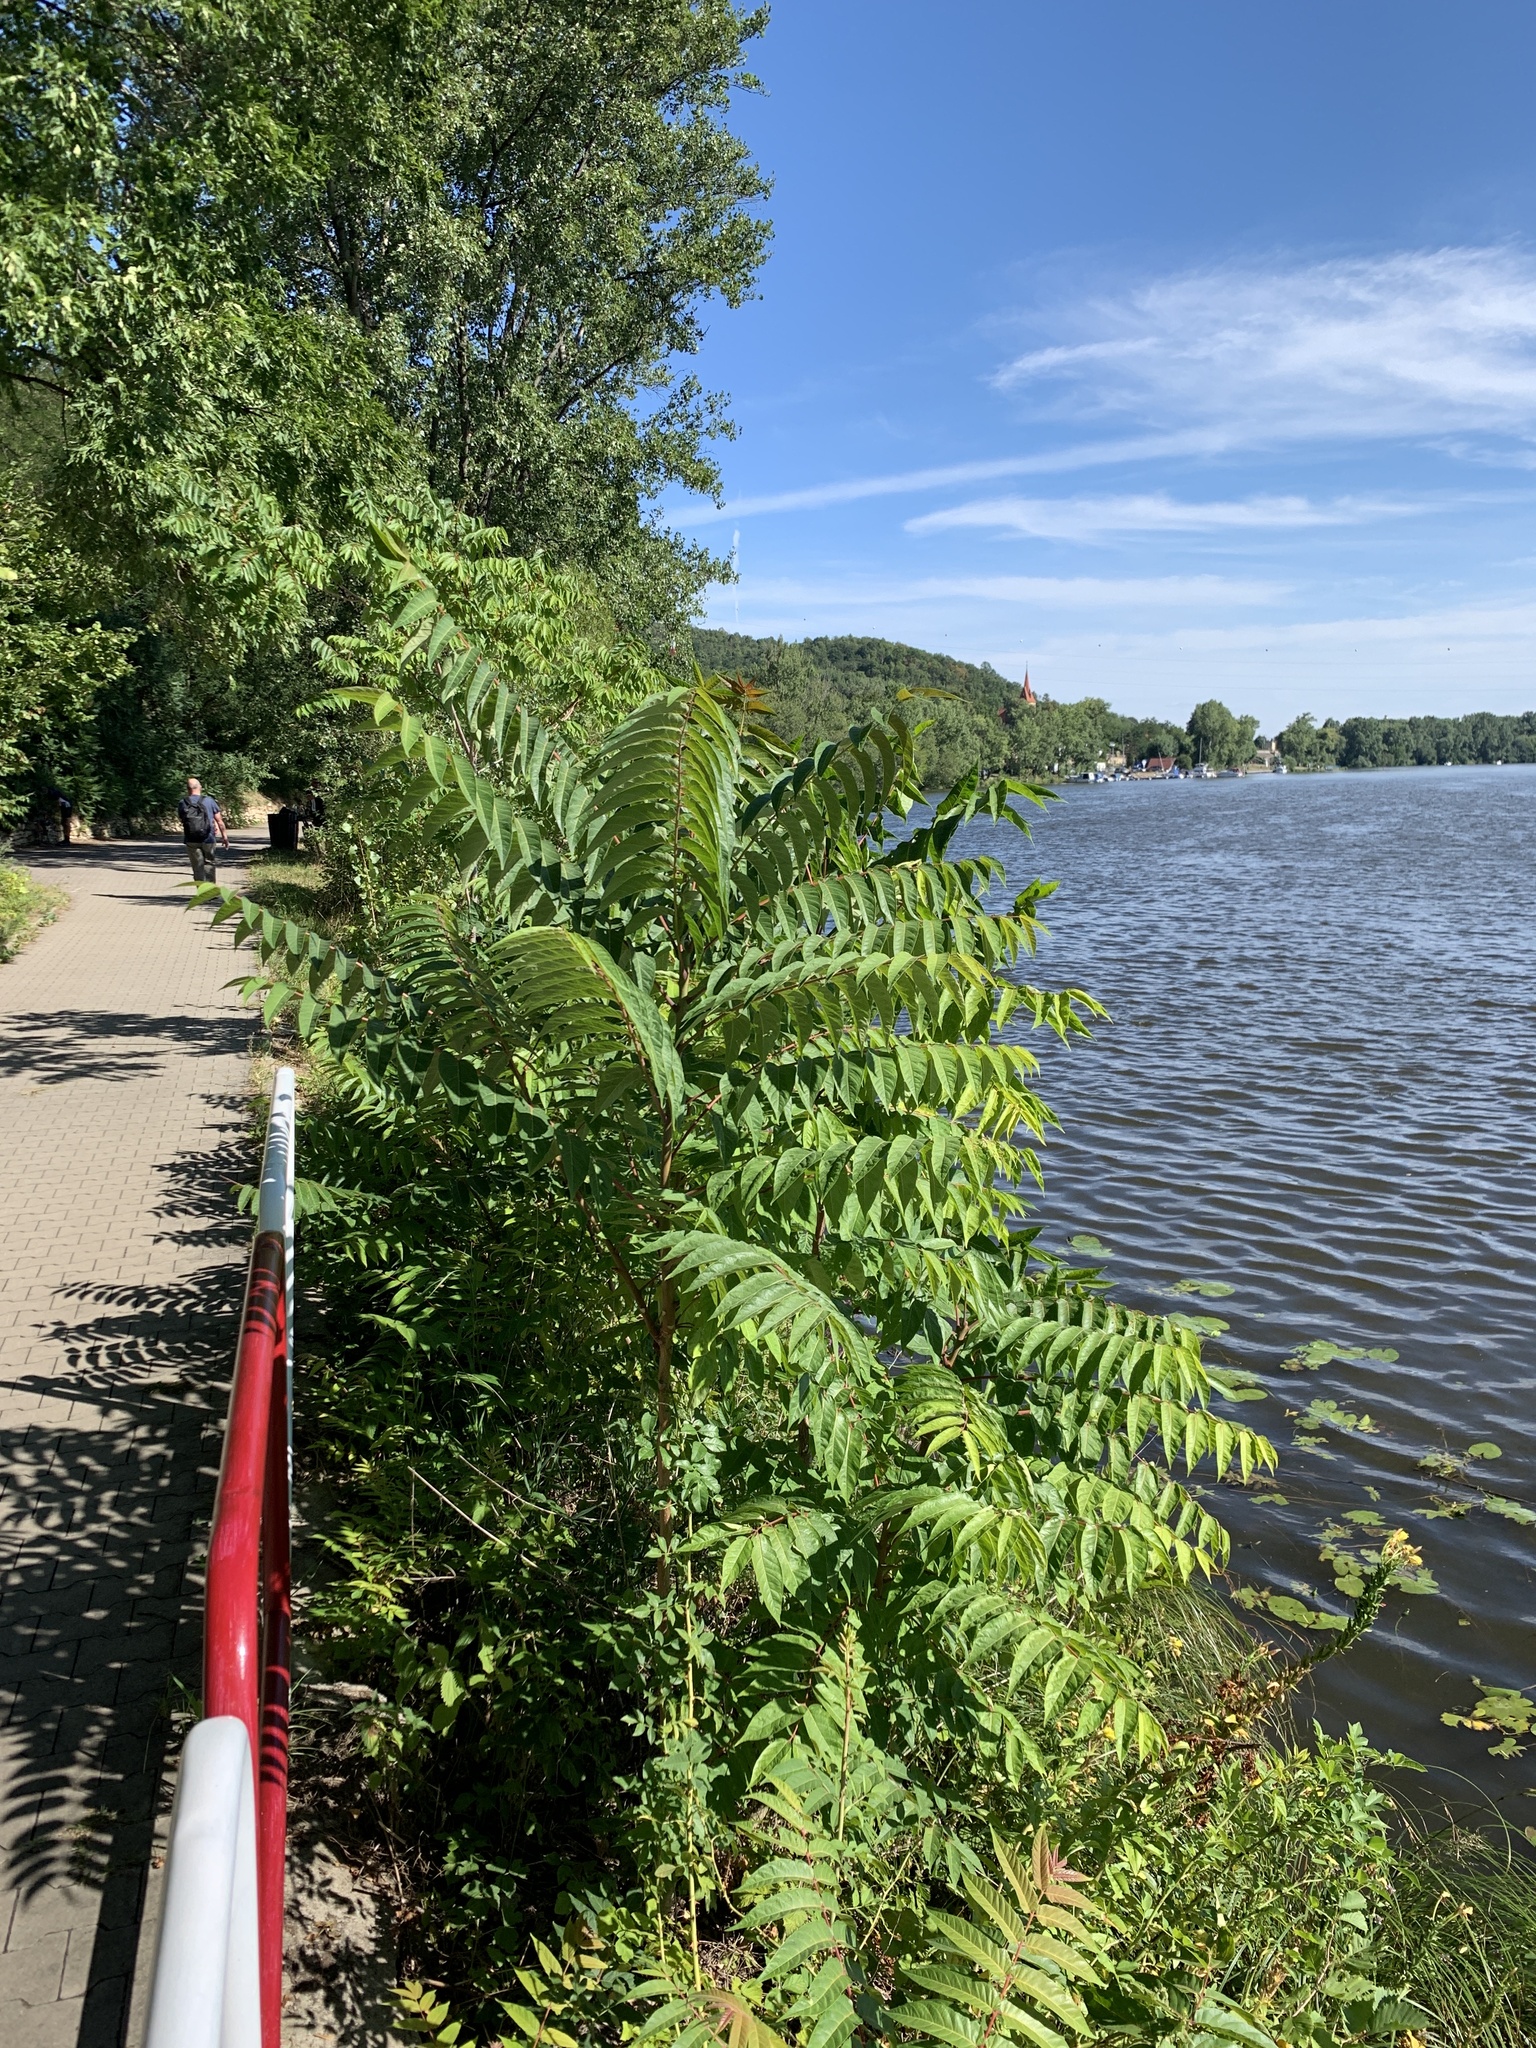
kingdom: Plantae
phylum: Tracheophyta
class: Magnoliopsida
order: Sapindales
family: Simaroubaceae
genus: Ailanthus
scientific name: Ailanthus altissima
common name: Tree-of-heaven
